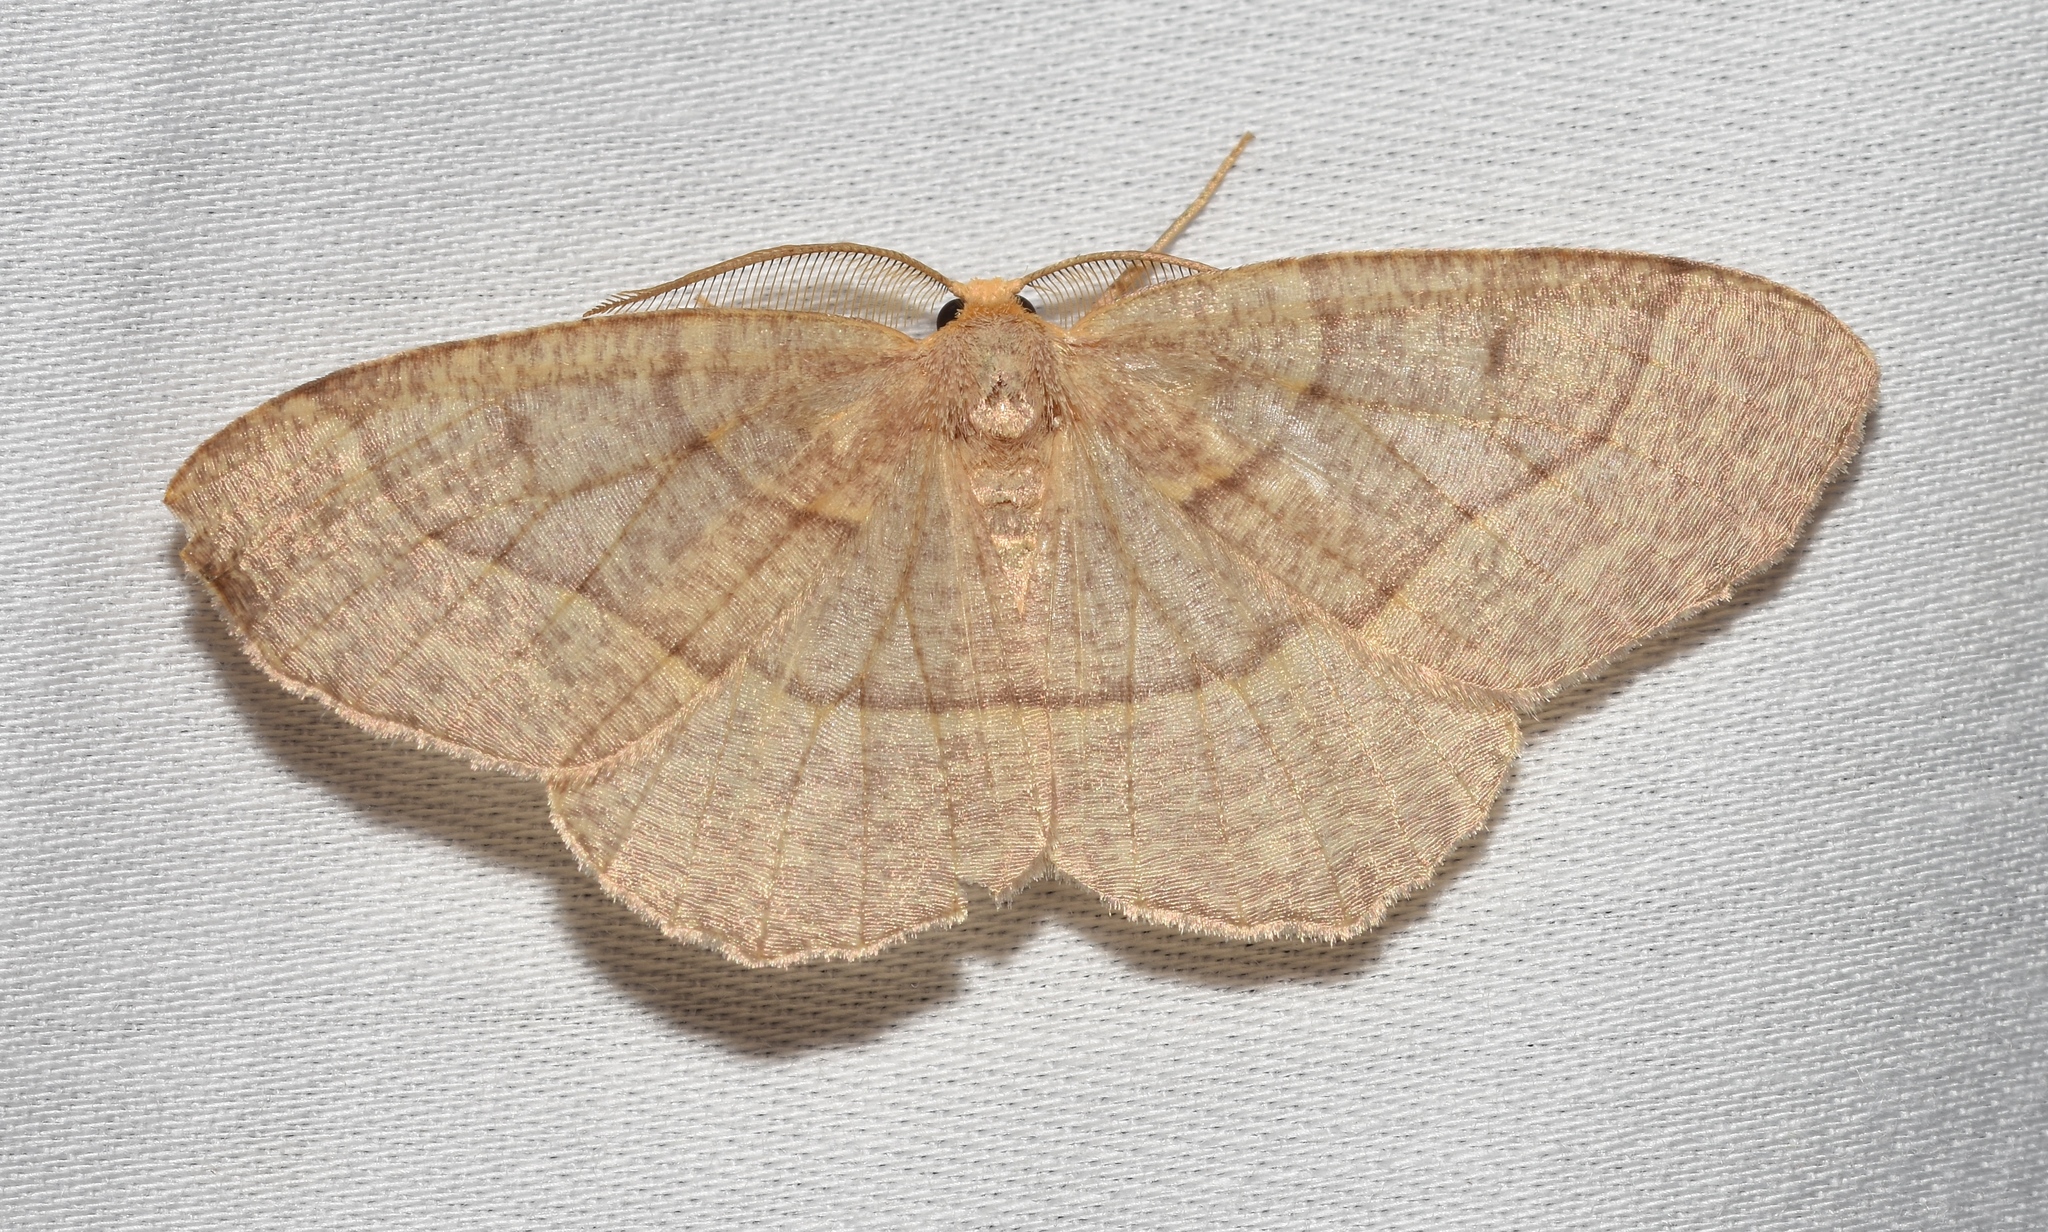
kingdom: Animalia
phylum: Arthropoda
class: Insecta
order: Lepidoptera
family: Geometridae
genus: Lambdina
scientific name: Lambdina fervidaria
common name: Curve-lined looper moth
